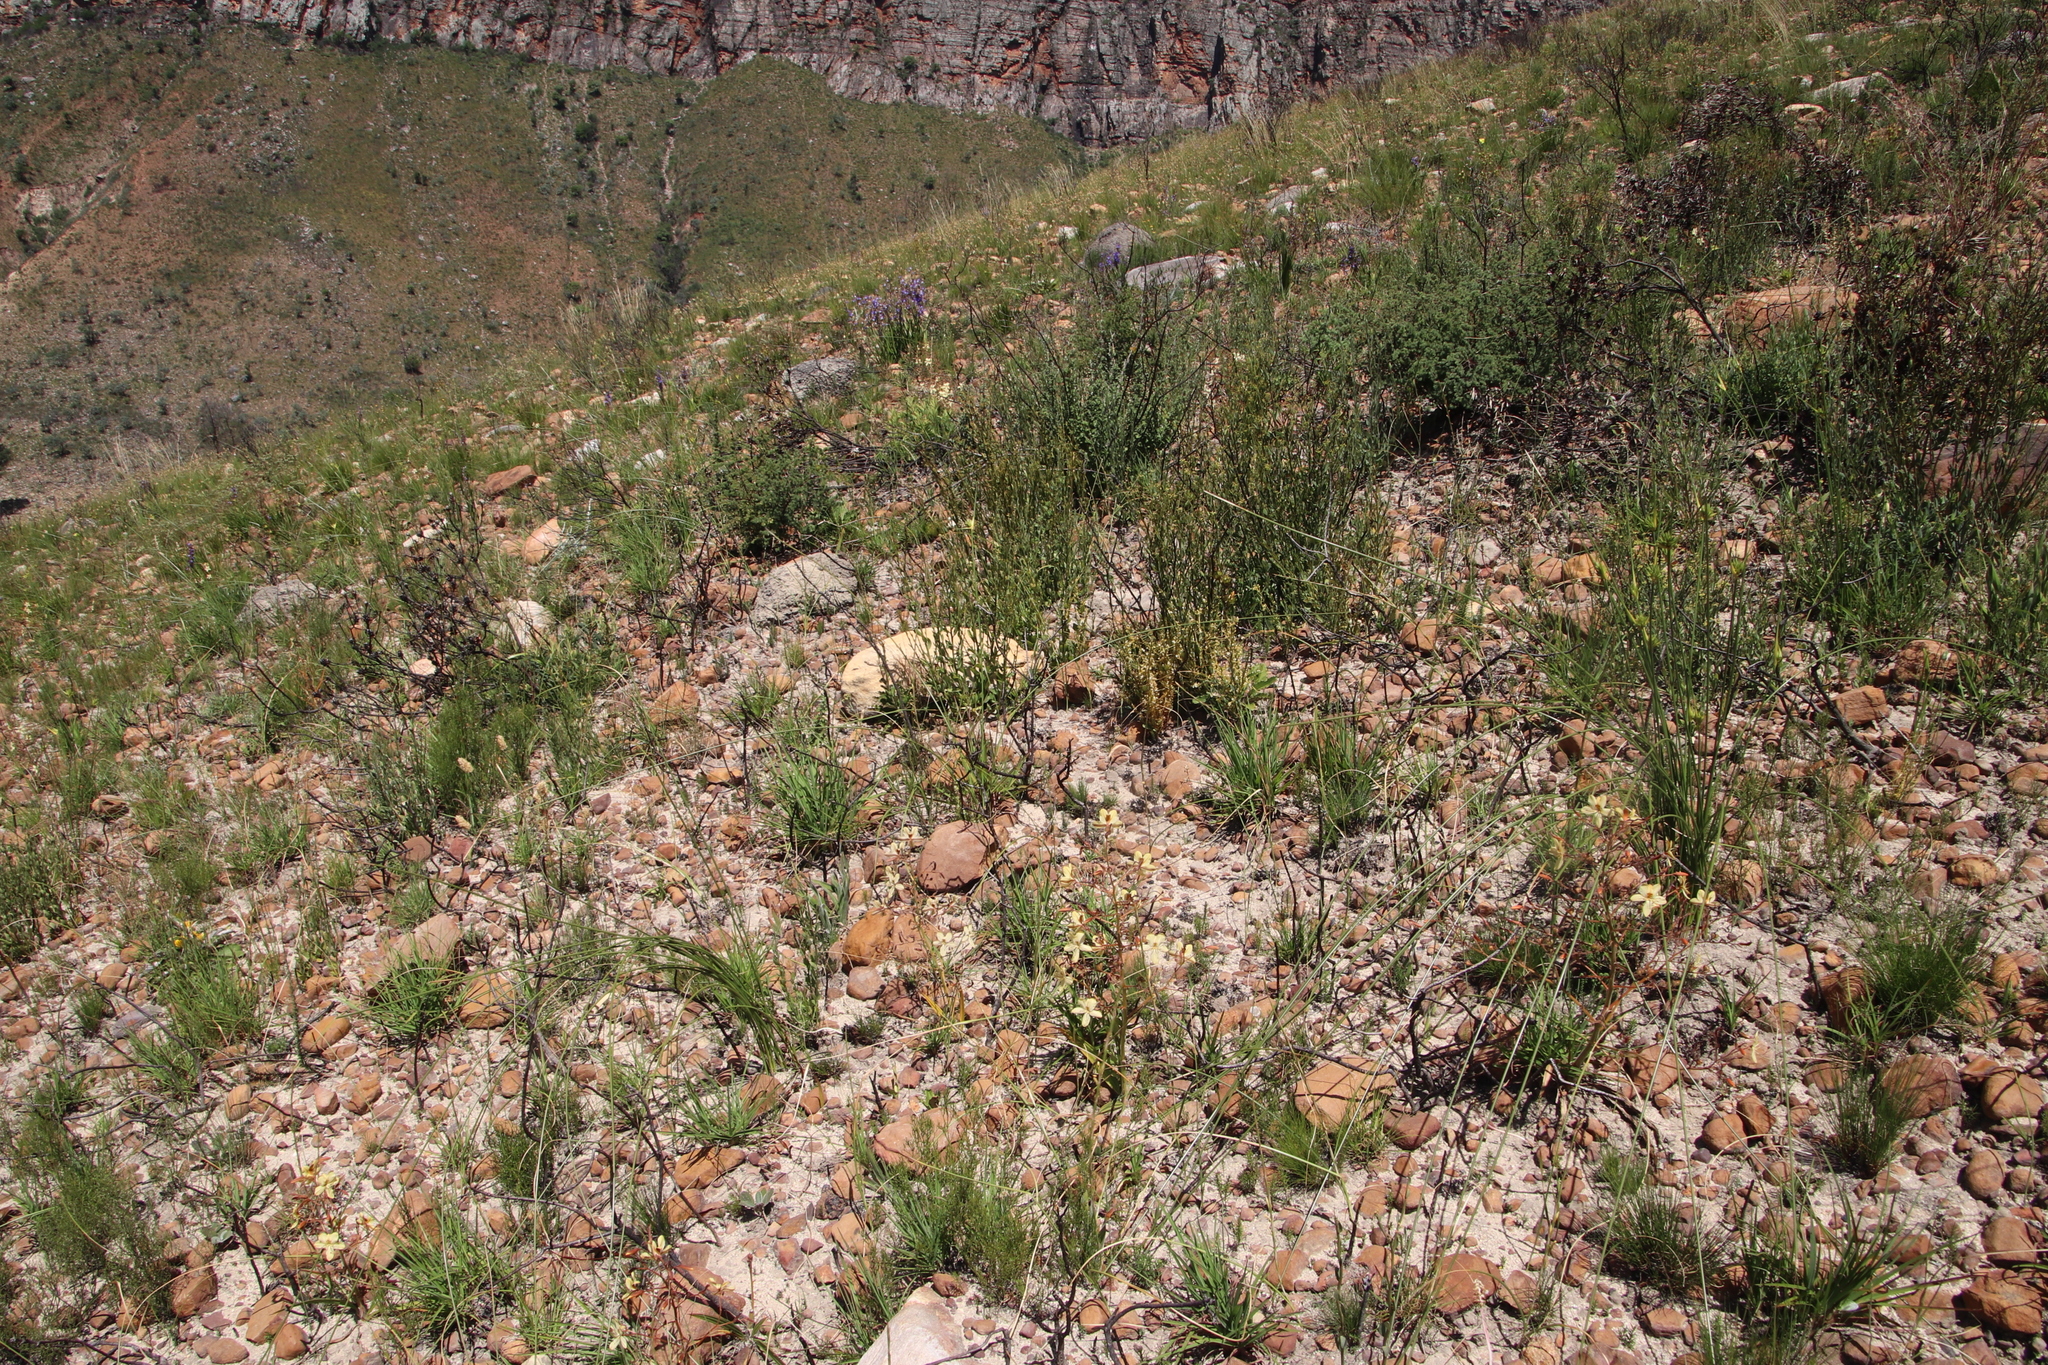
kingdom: Plantae
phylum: Tracheophyta
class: Liliopsida
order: Commelinales
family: Haemodoraceae
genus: Wachendorfia
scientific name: Wachendorfia paniculata
